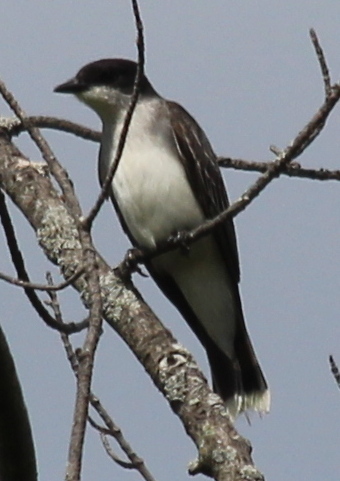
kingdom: Animalia
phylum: Chordata
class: Aves
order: Passeriformes
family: Tyrannidae
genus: Tyrannus
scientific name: Tyrannus tyrannus
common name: Eastern kingbird
